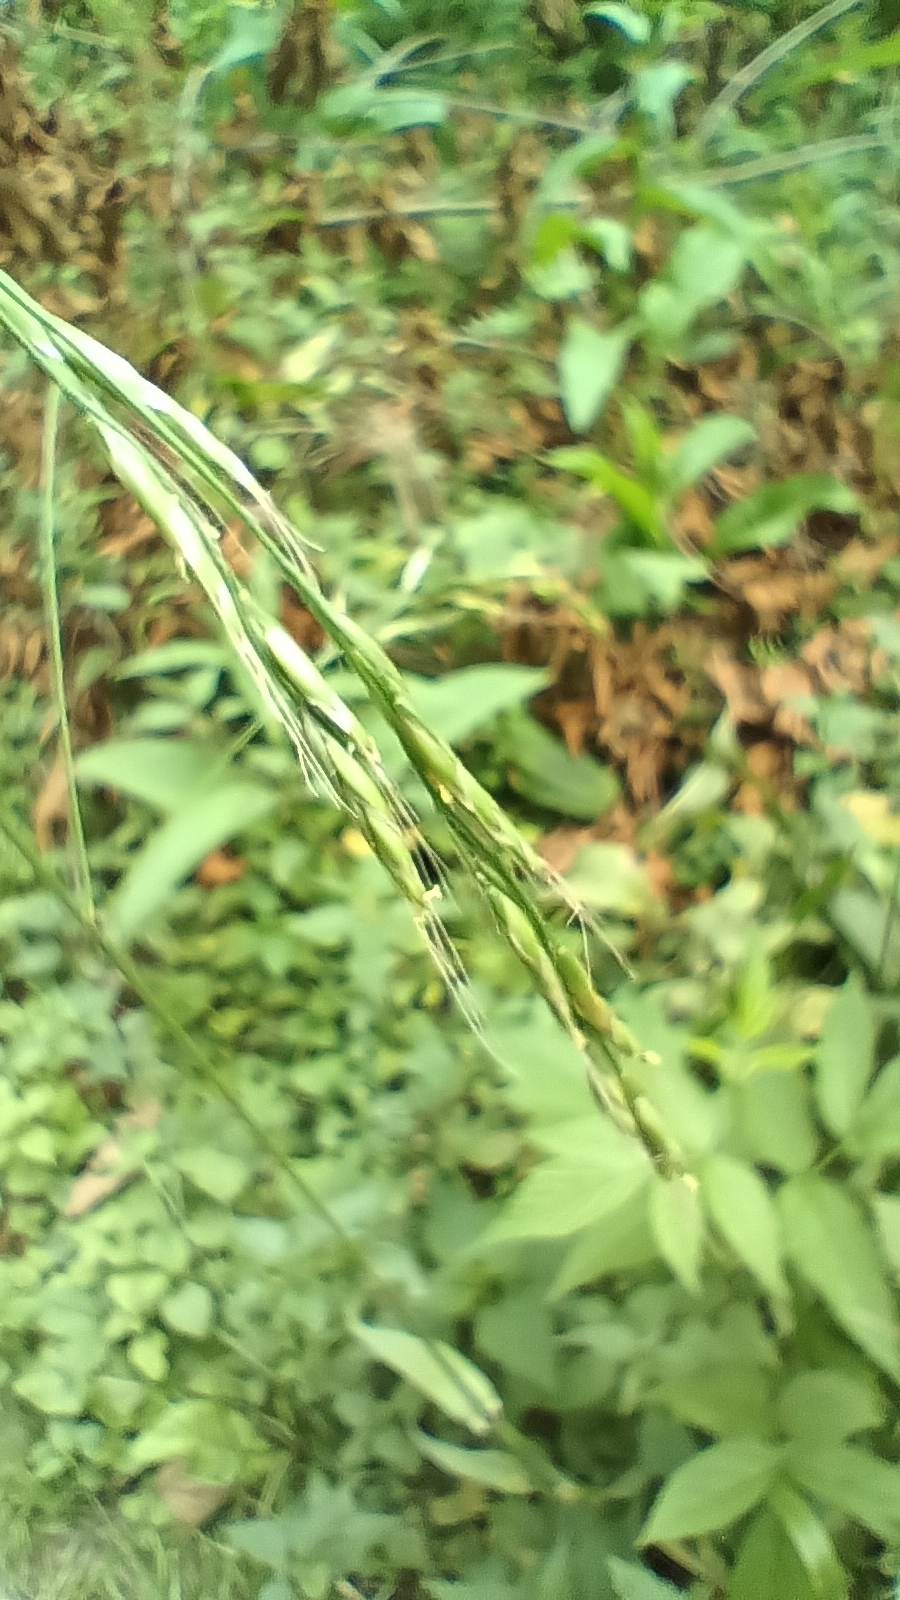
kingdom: Plantae
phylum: Tracheophyta
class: Liliopsida
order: Poales
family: Poaceae
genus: Lolium
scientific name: Lolium giganteum
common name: Giant fescue
